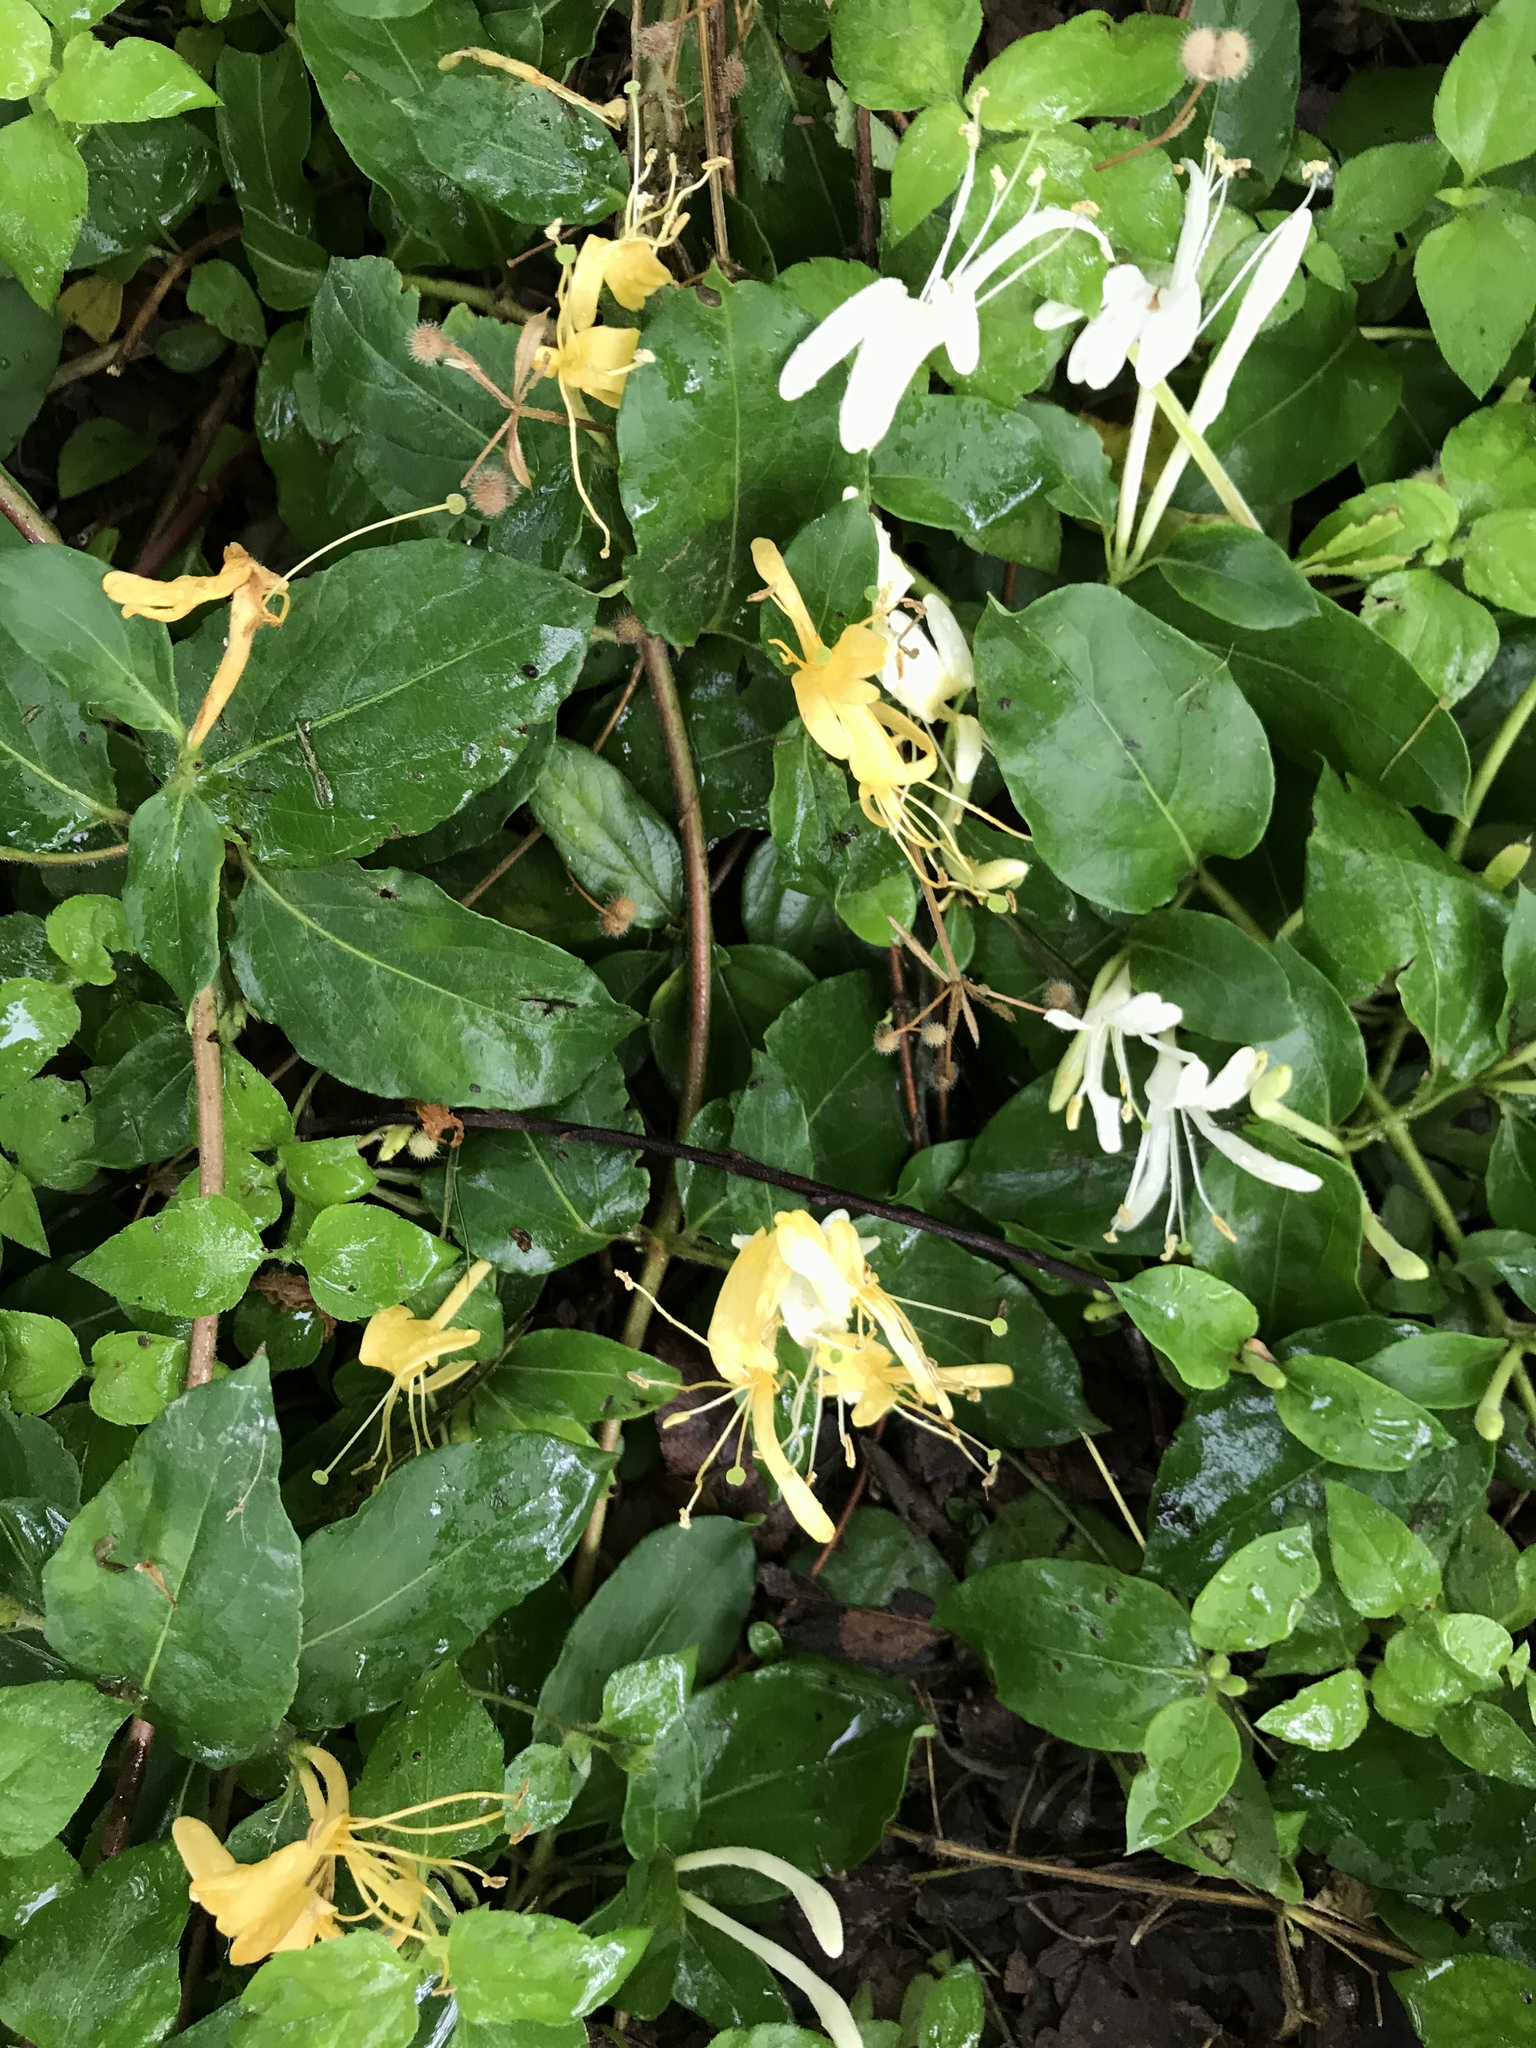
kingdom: Plantae
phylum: Tracheophyta
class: Magnoliopsida
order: Dipsacales
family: Caprifoliaceae
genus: Lonicera
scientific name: Lonicera japonica
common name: Japanese honeysuckle
